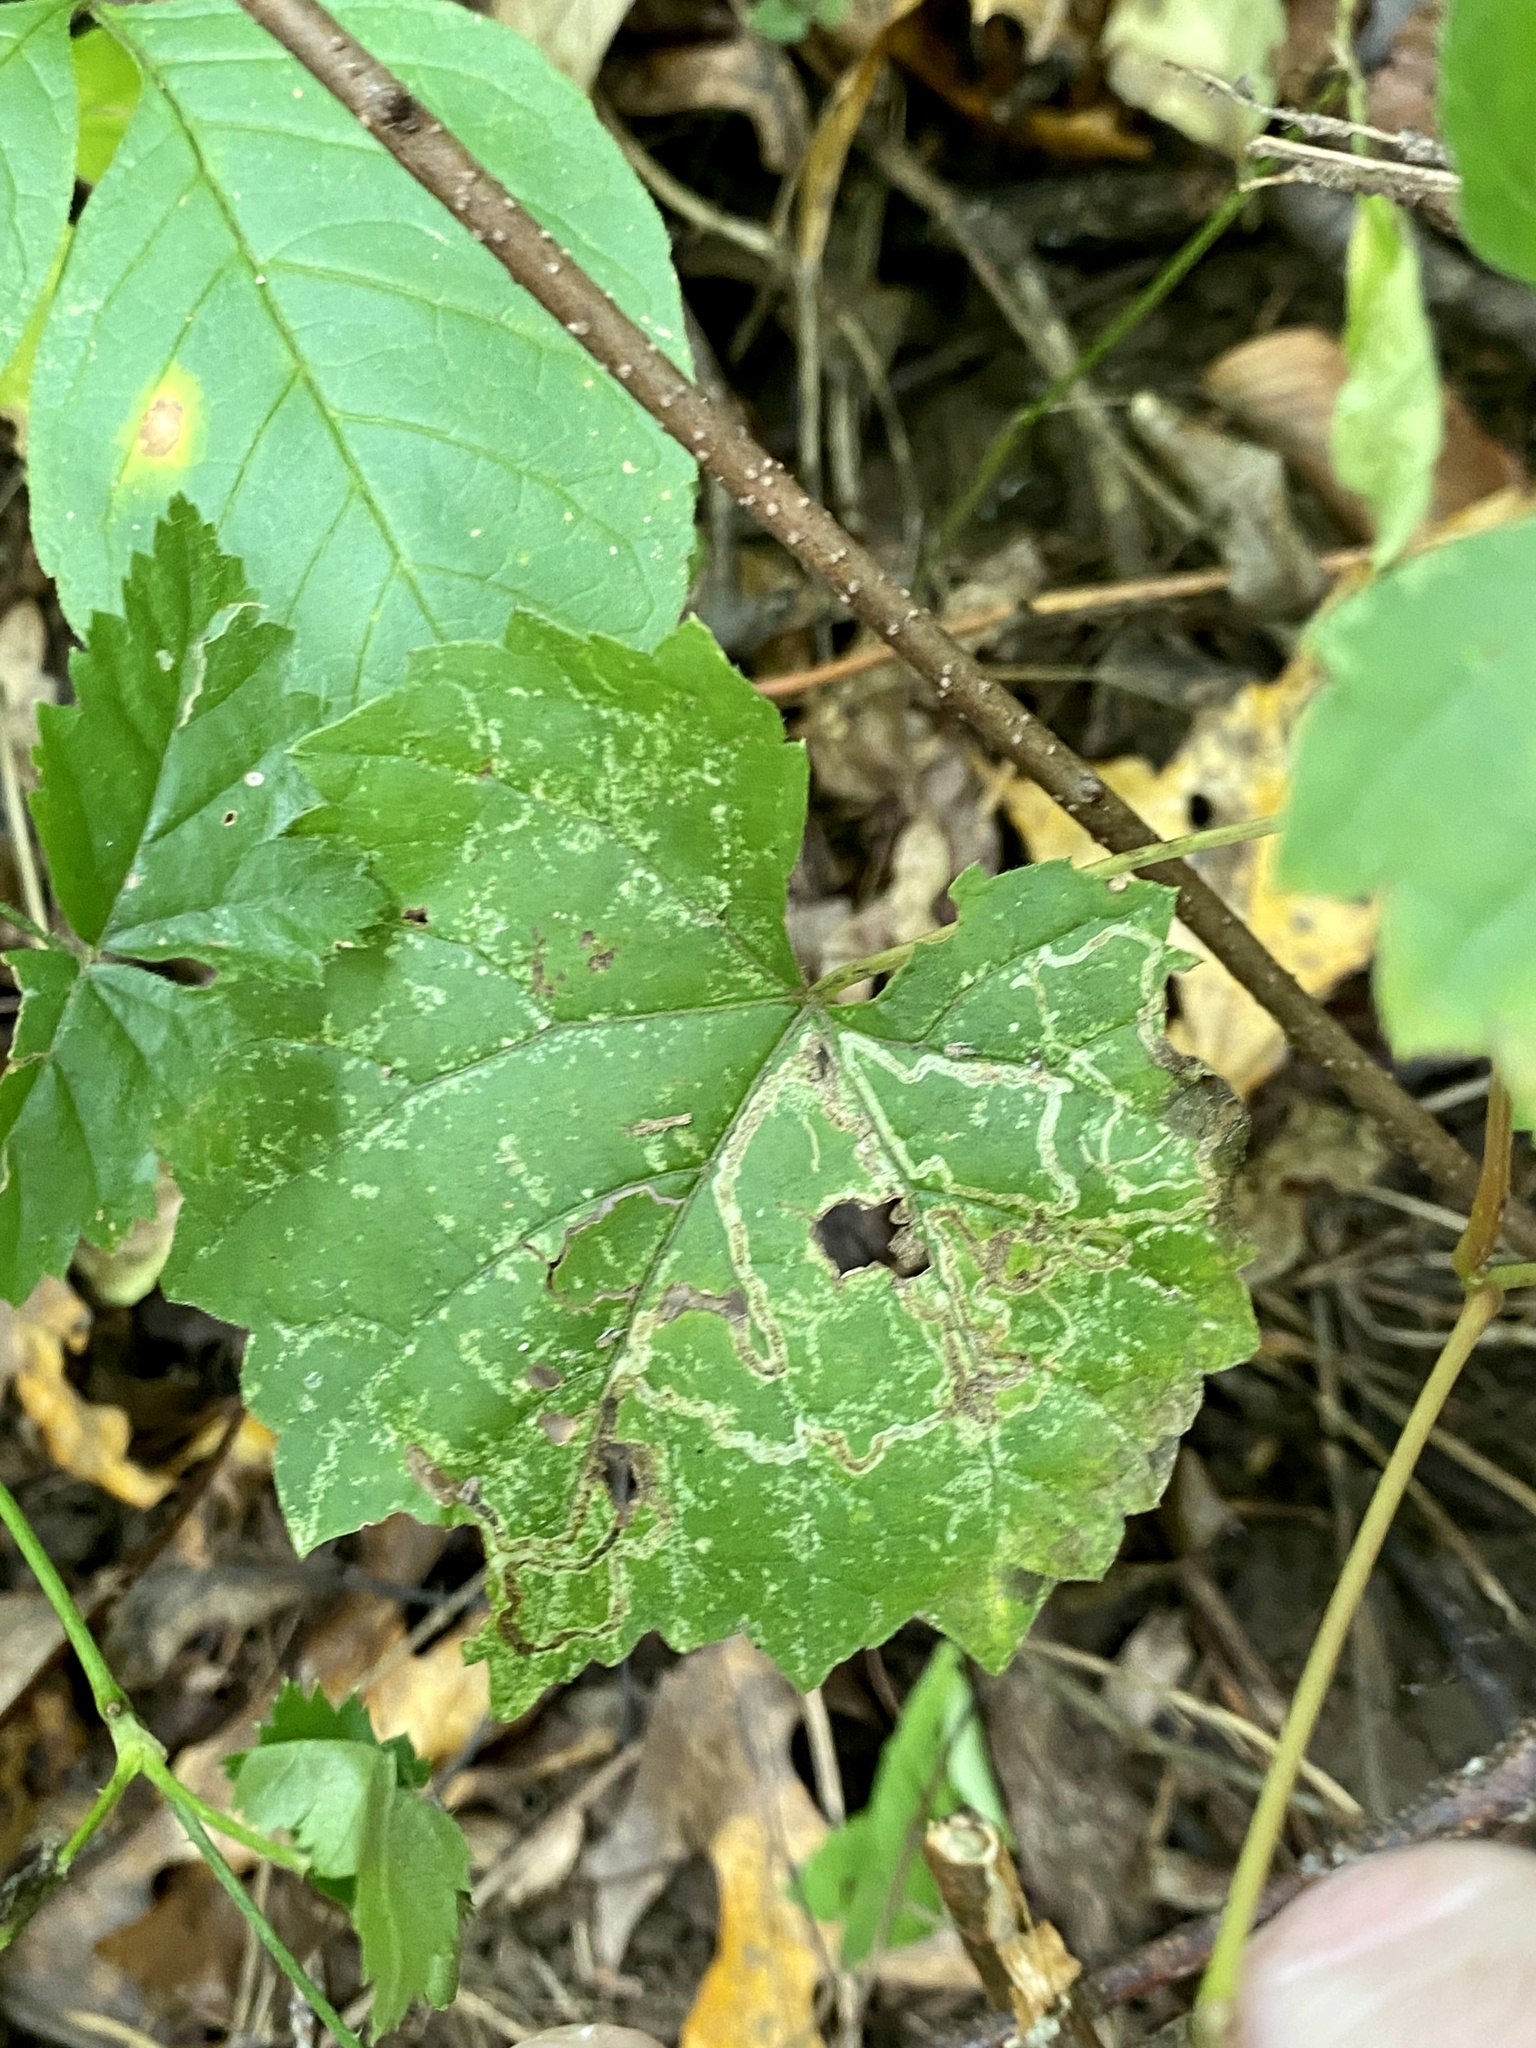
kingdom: Animalia
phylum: Arthropoda
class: Insecta
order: Lepidoptera
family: Gracillariidae
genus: Phyllocnistis
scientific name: Phyllocnistis vitifoliella
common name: Grape leaf-miner moth
